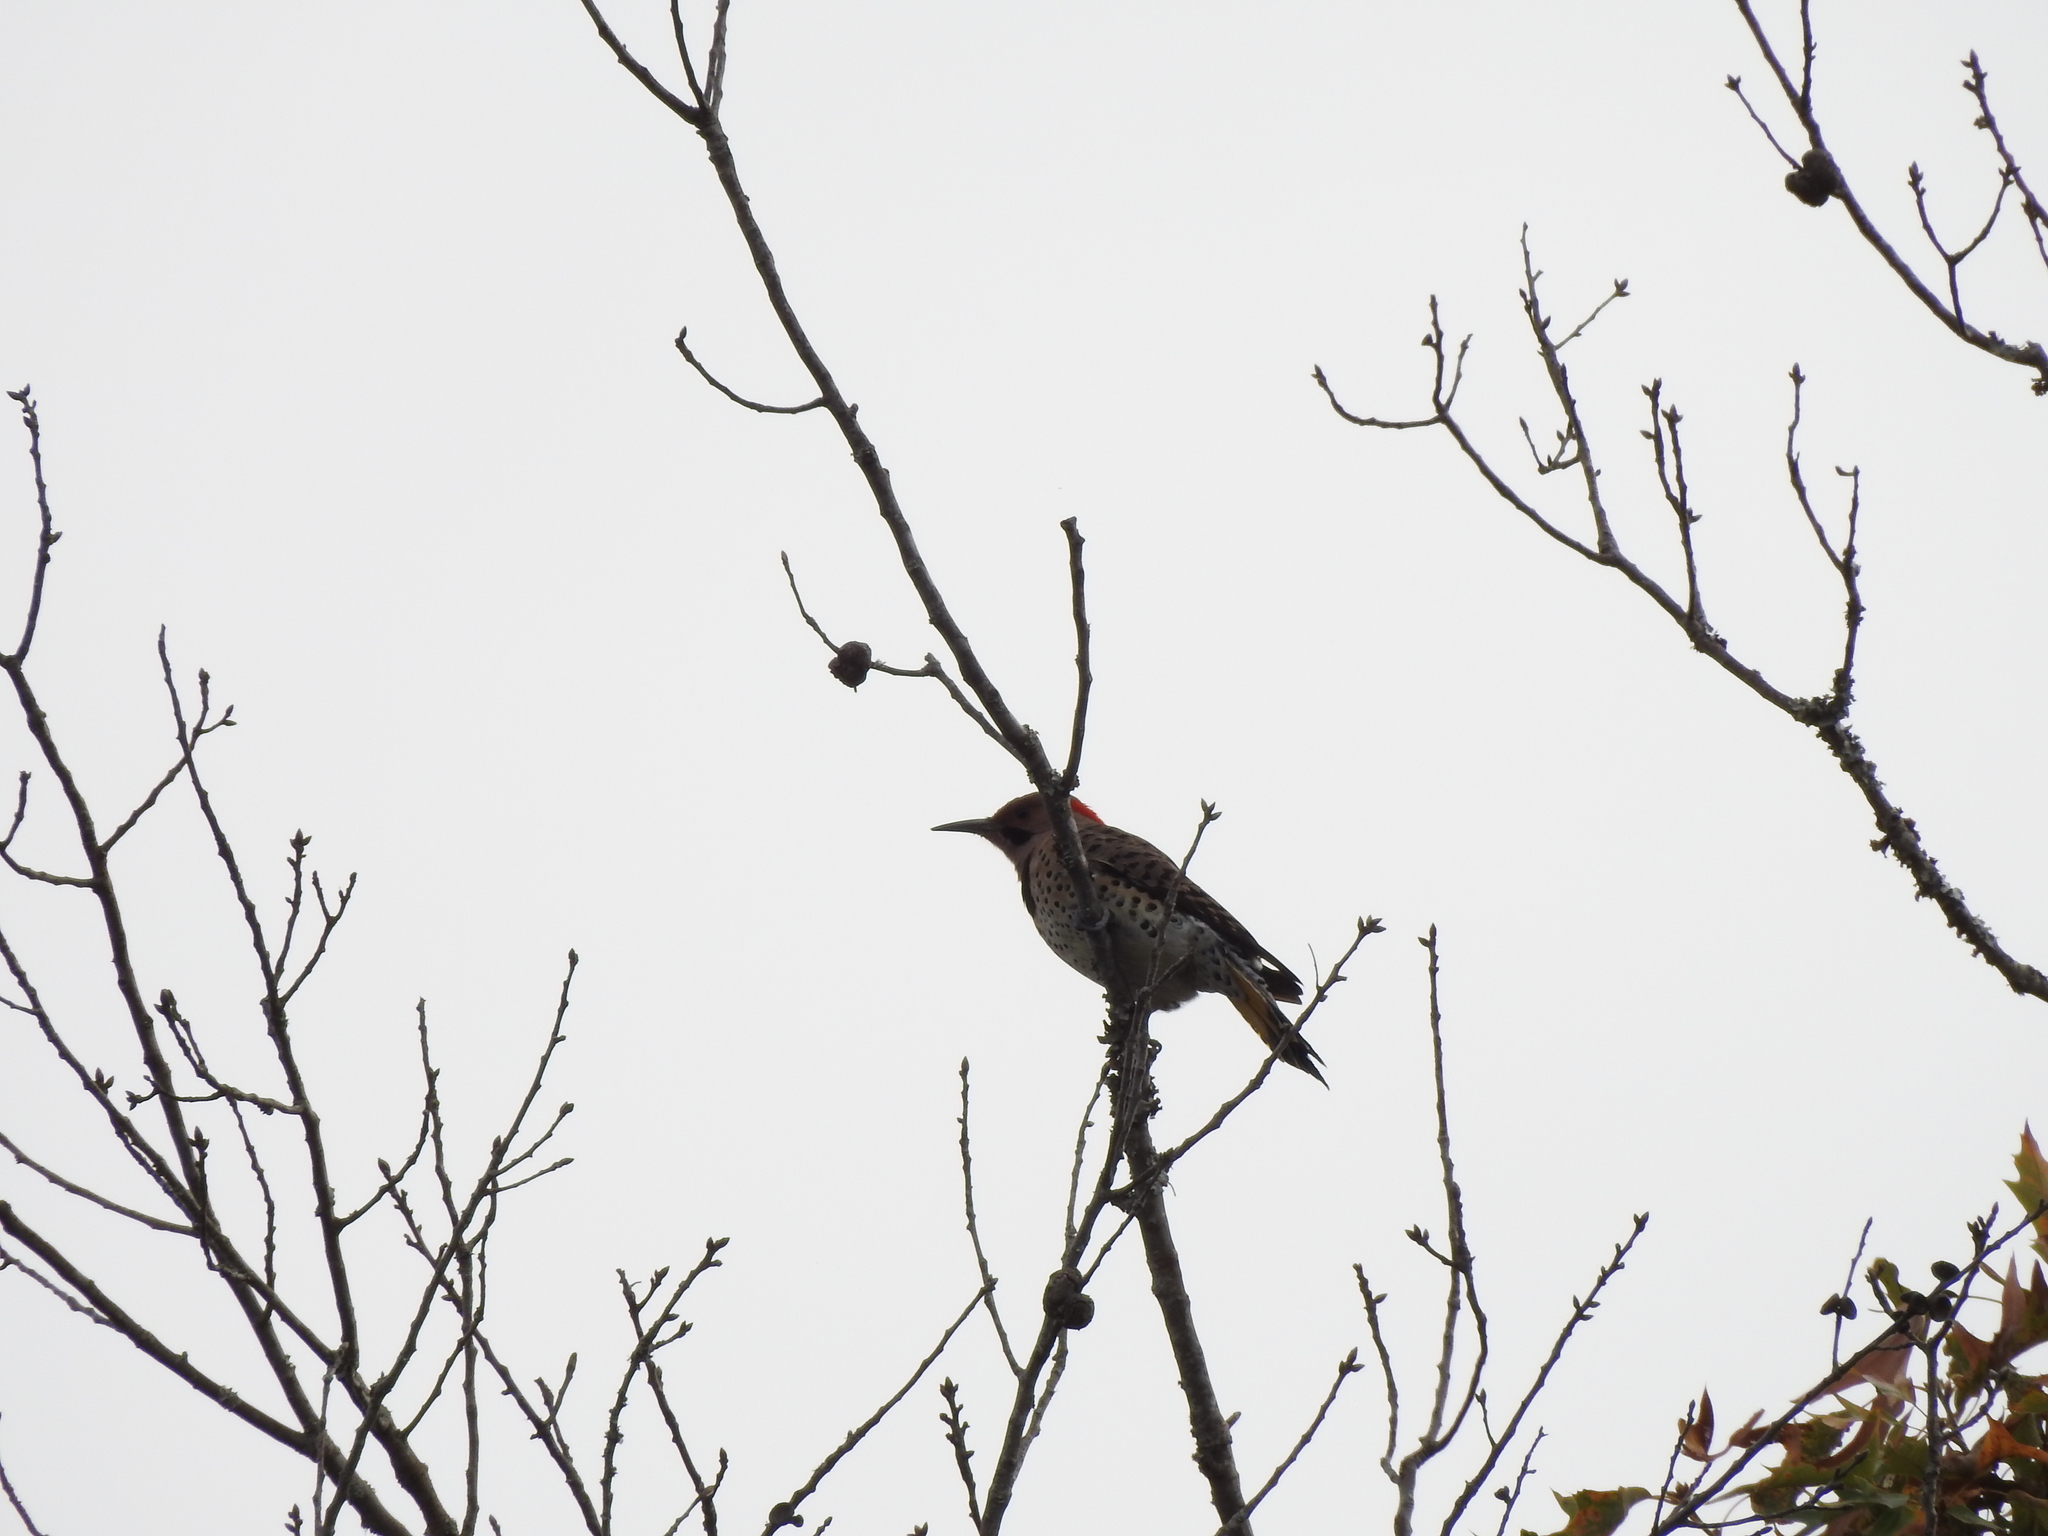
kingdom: Animalia
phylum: Chordata
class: Aves
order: Piciformes
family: Picidae
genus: Colaptes
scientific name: Colaptes auratus
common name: Northern flicker
